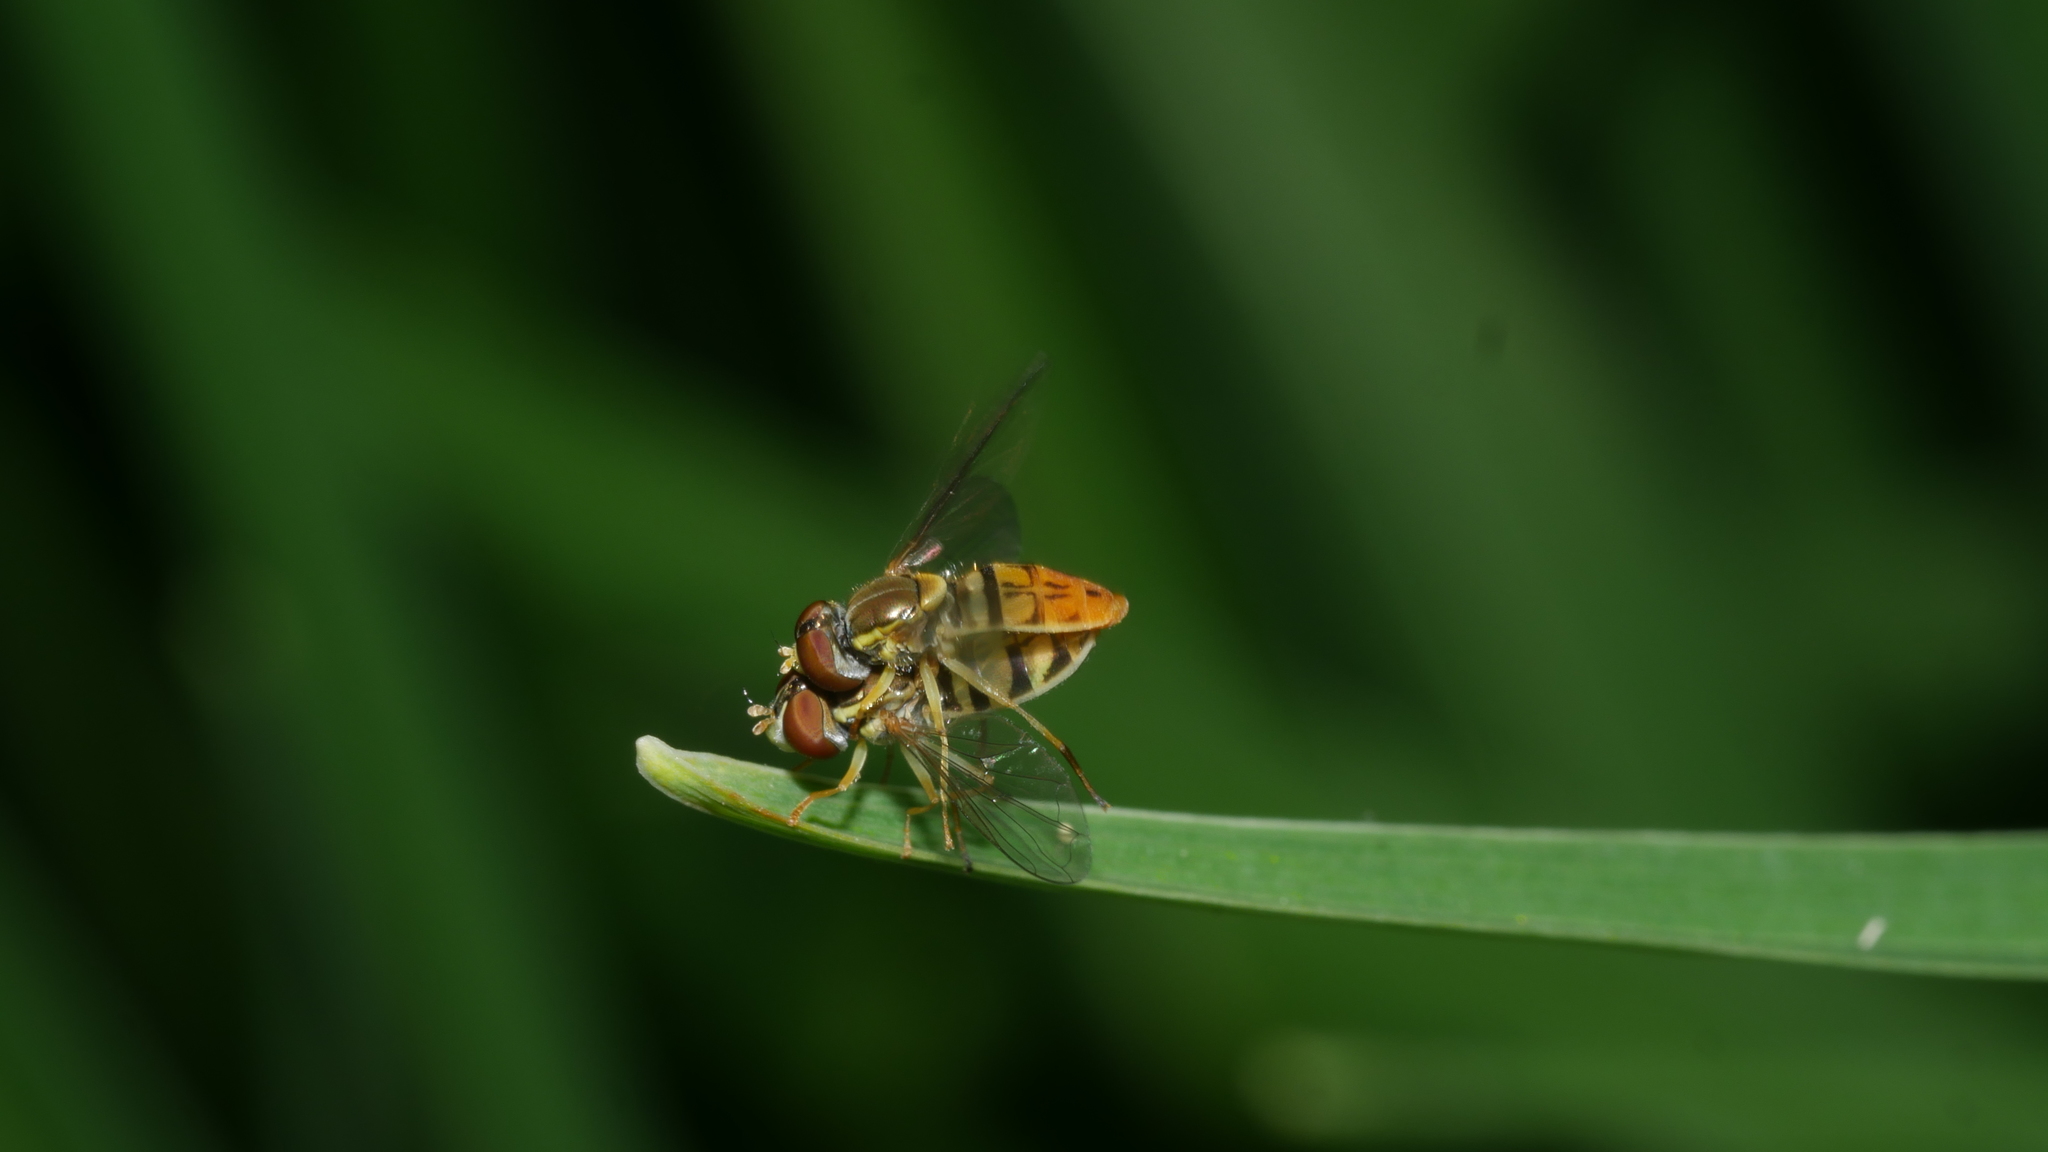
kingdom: Animalia
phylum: Arthropoda
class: Insecta
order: Diptera
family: Syrphidae
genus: Toxomerus
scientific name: Toxomerus marginatus
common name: Syrphid fly
